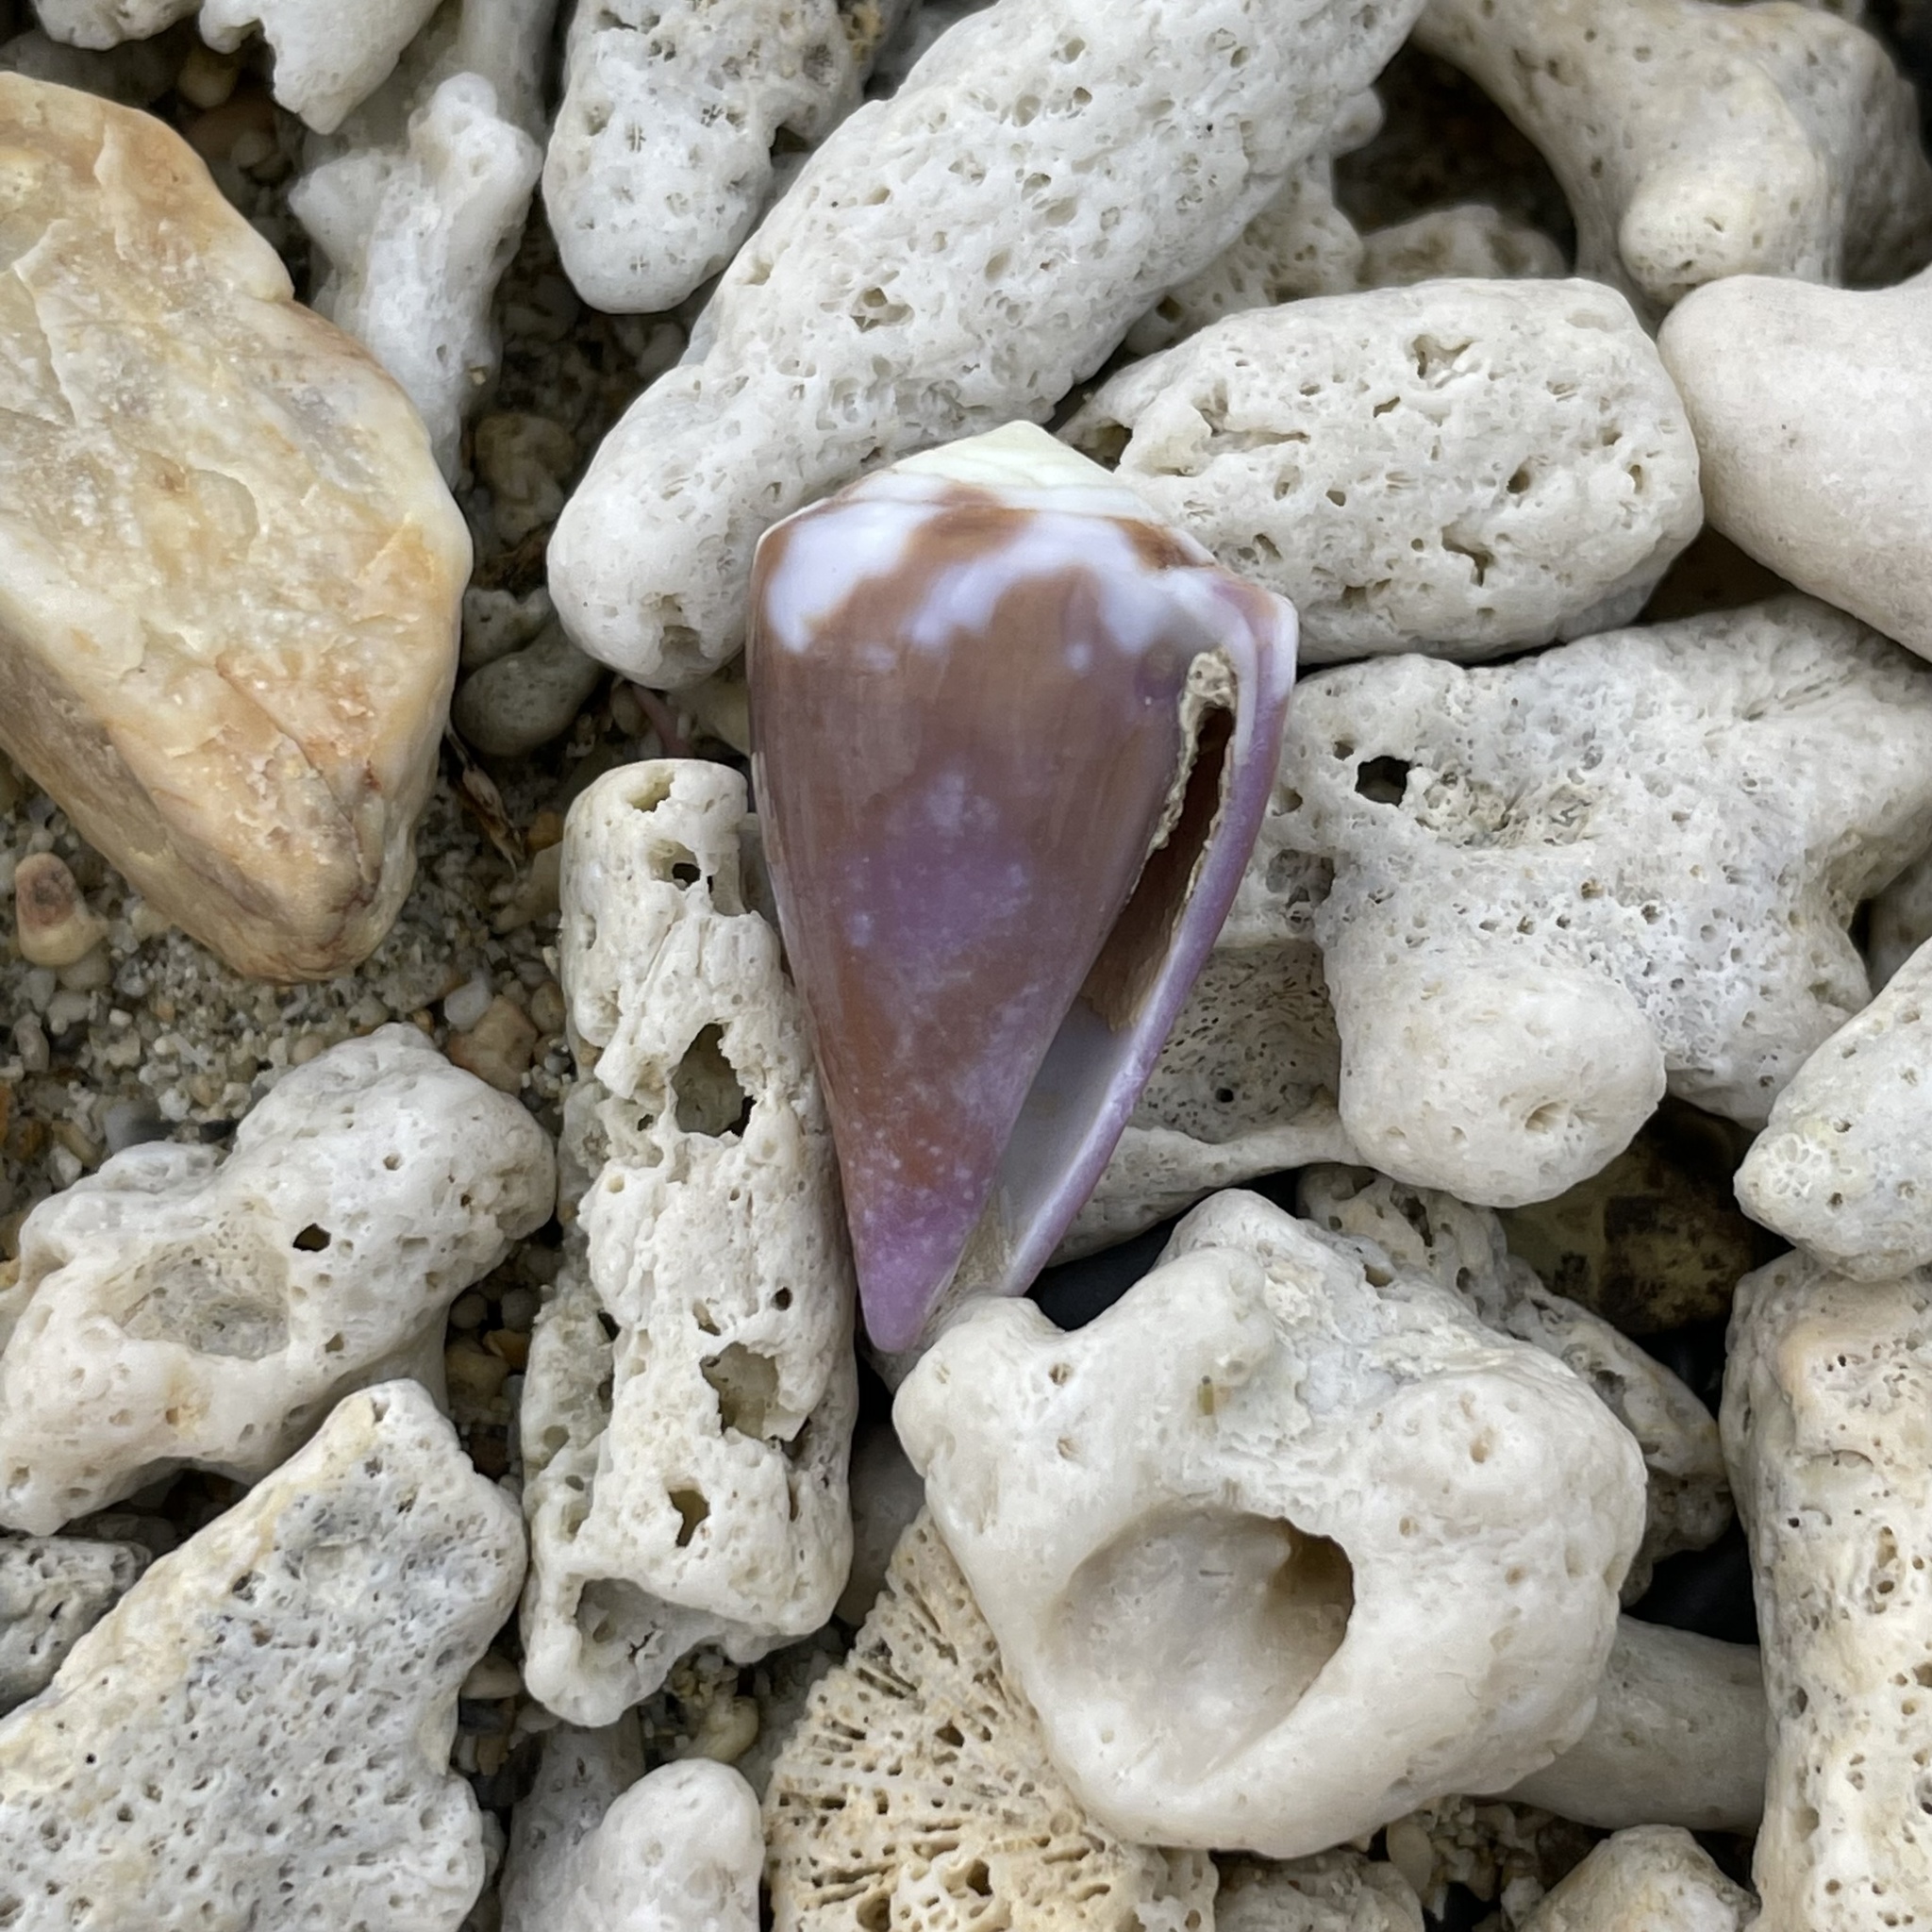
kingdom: Animalia
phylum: Mollusca
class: Gastropoda
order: Neogastropoda
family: Conidae
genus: Conus
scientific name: Conus rattus
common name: Rat cone
